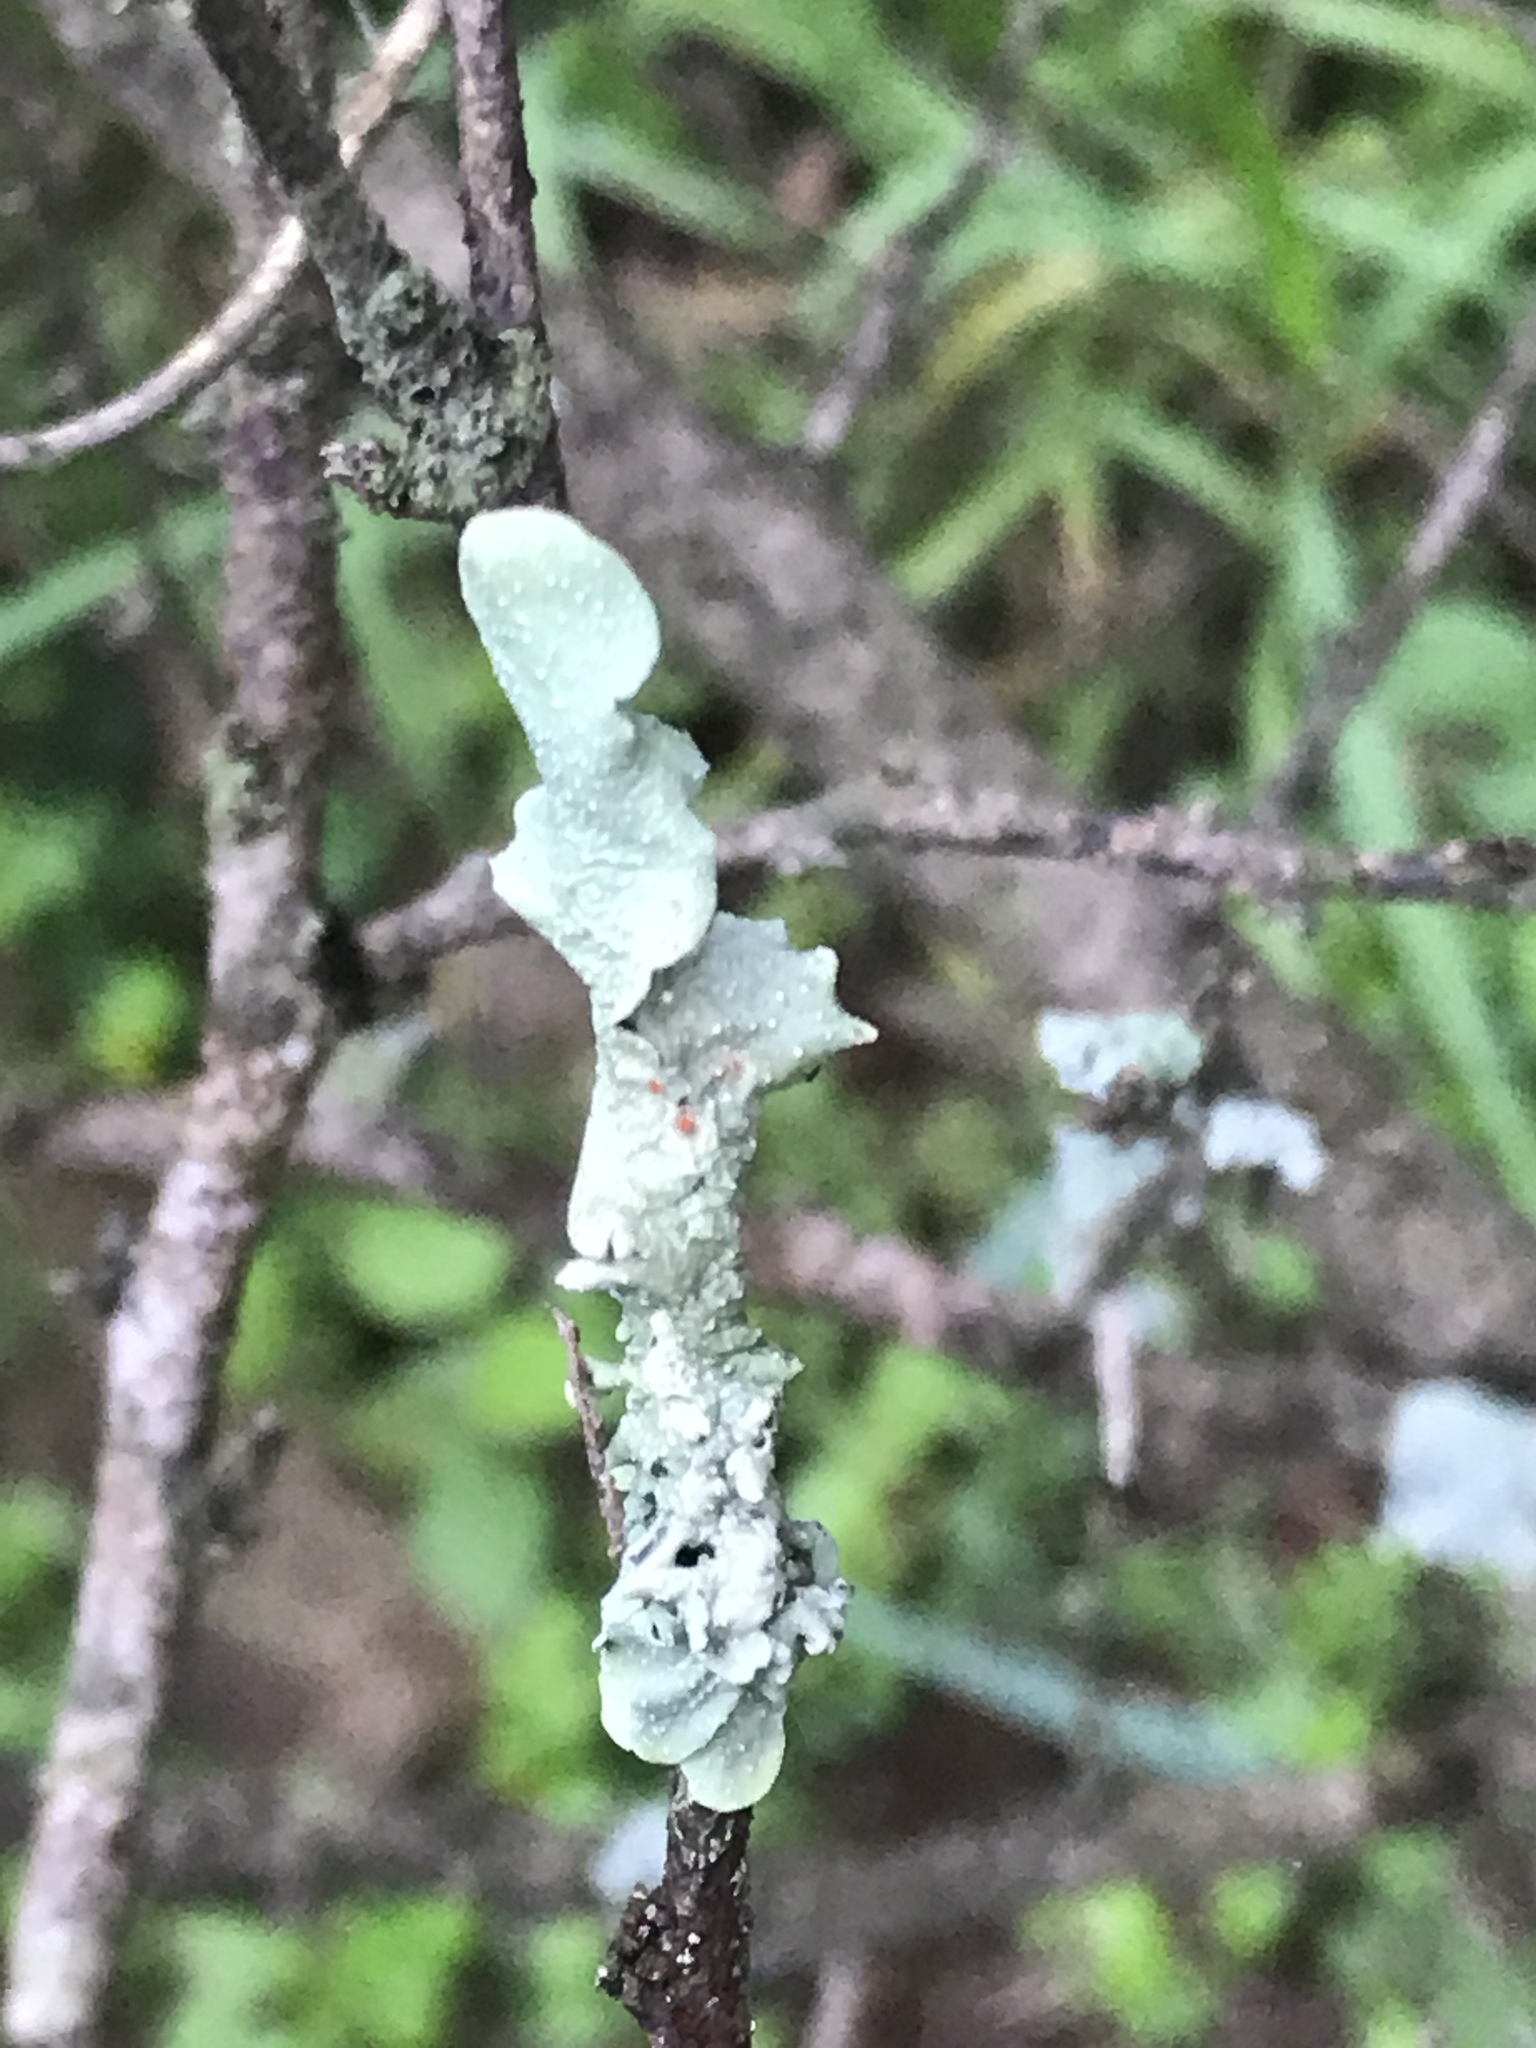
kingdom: Fungi
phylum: Ascomycota
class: Lecanoromycetes
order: Lecanorales
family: Parmeliaceae
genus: Punctelia
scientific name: Punctelia graminicola
